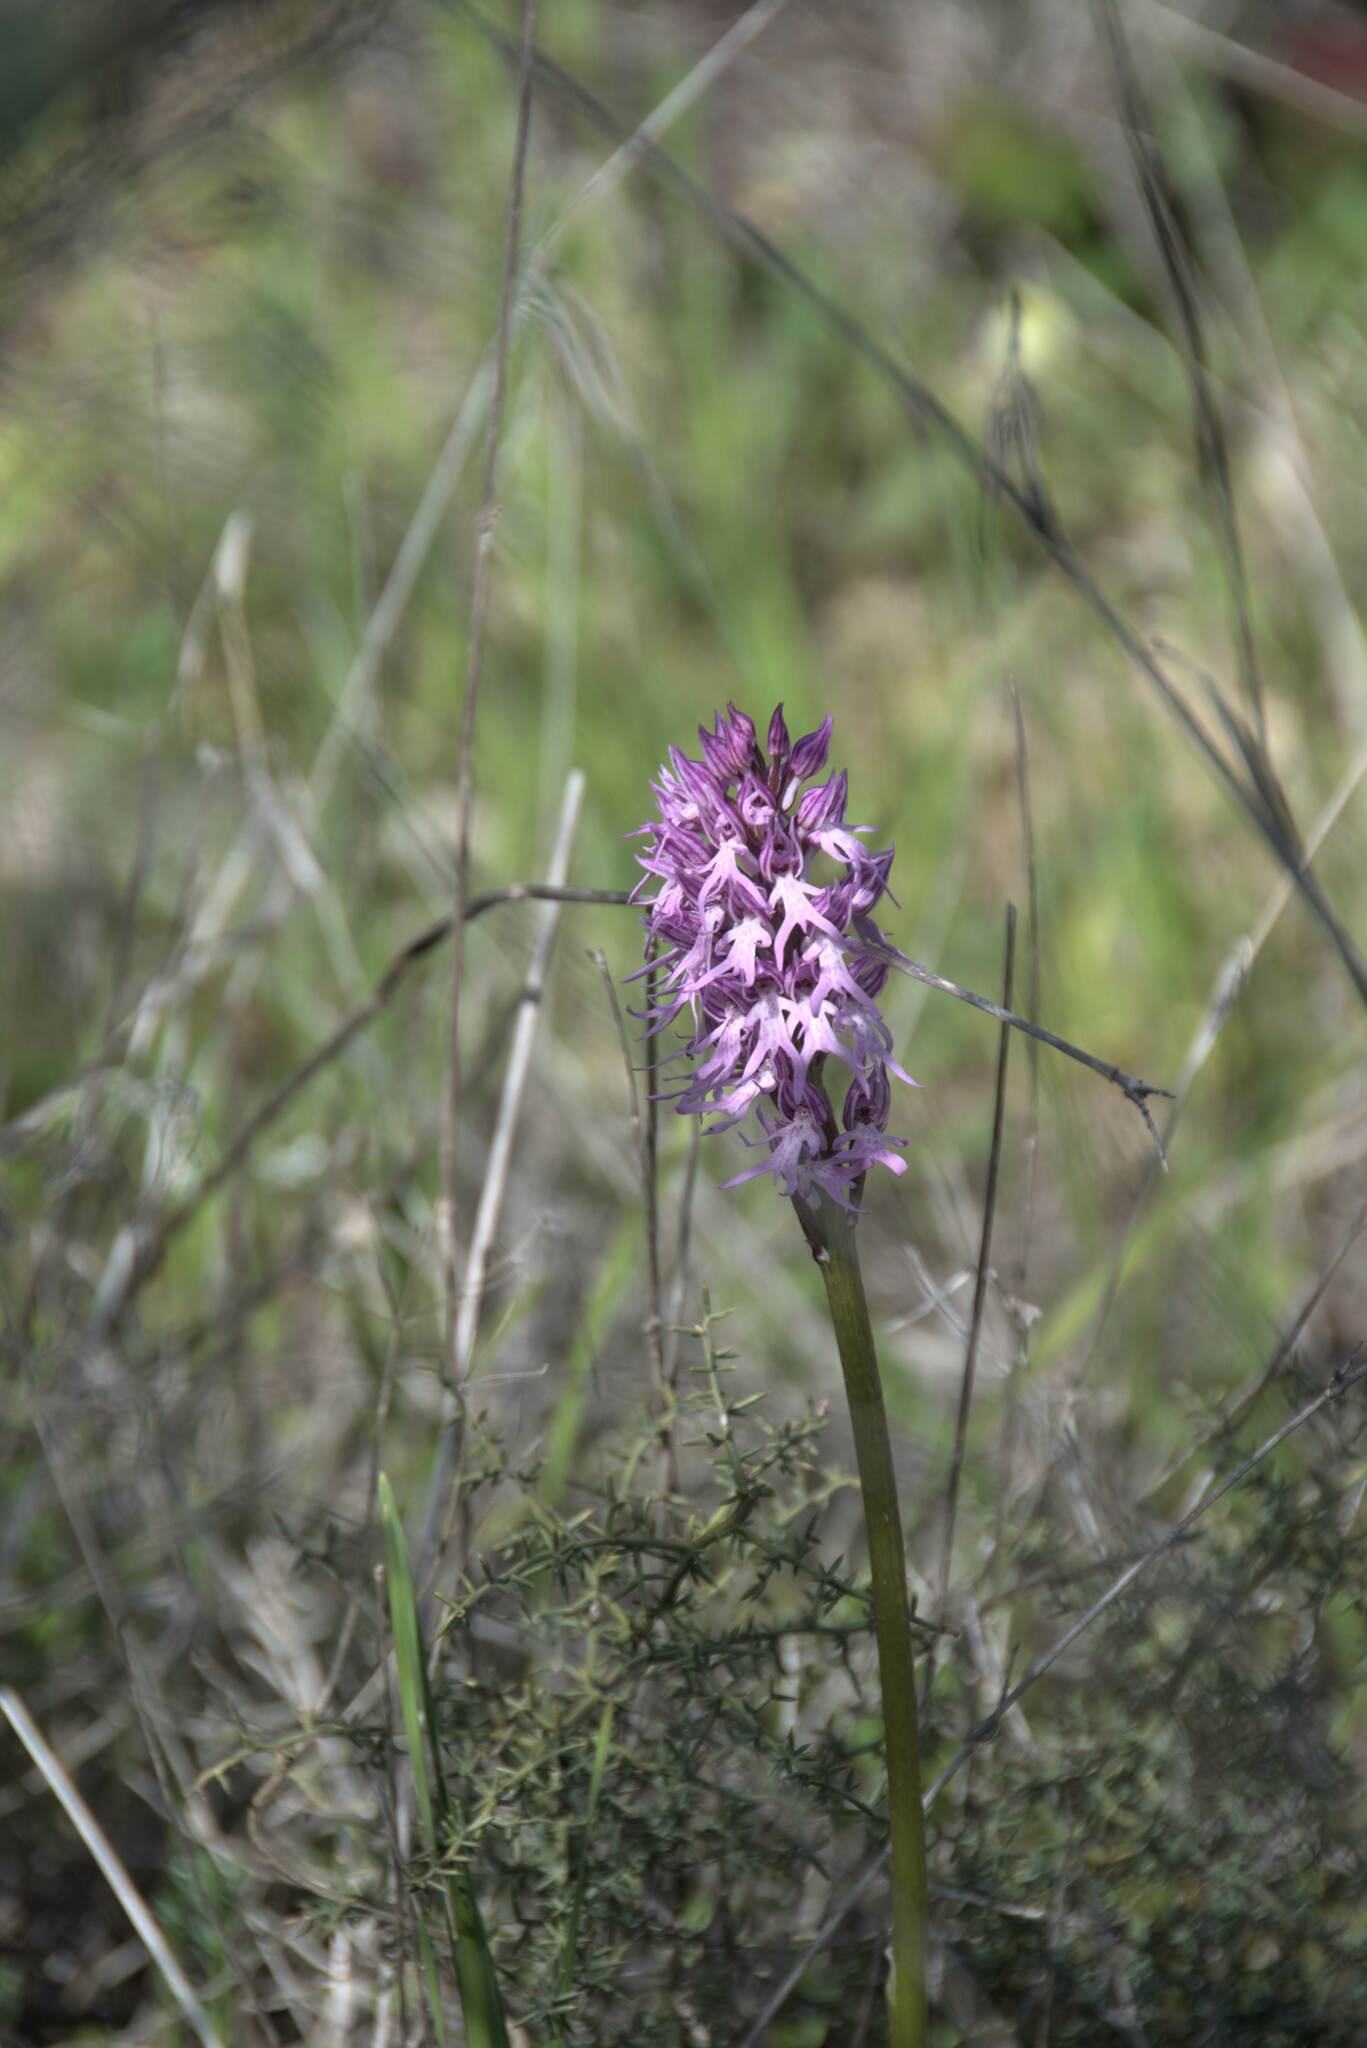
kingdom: Plantae
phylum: Tracheophyta
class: Liliopsida
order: Asparagales
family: Orchidaceae
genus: Orchis
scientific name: Orchis italica
